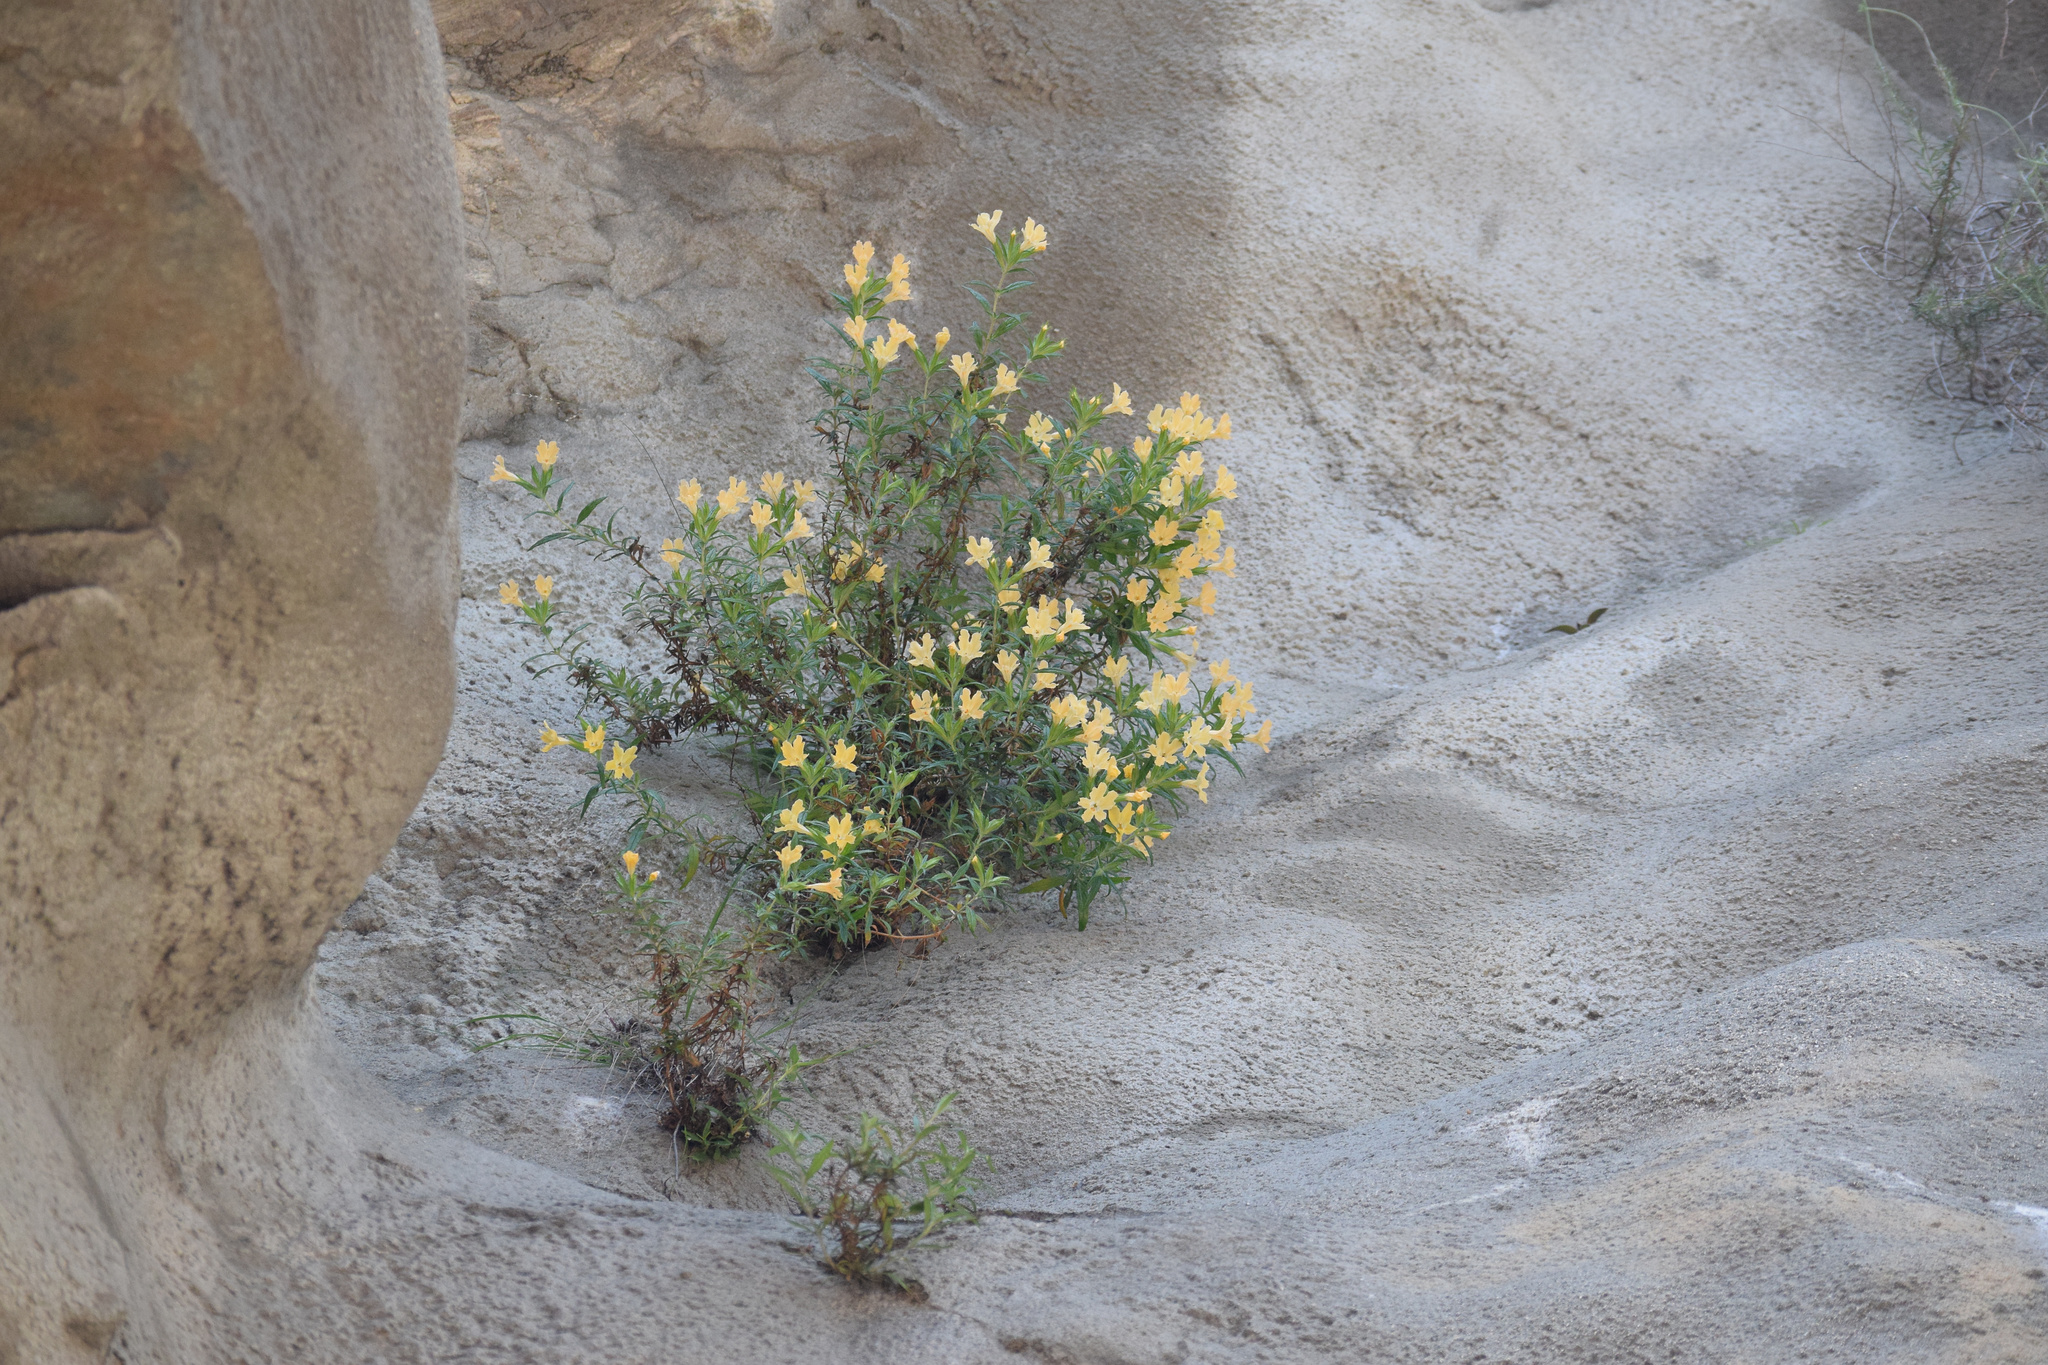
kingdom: Plantae
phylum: Tracheophyta
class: Magnoliopsida
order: Lamiales
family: Phrymaceae
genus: Diplacus
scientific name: Diplacus longiflorus
